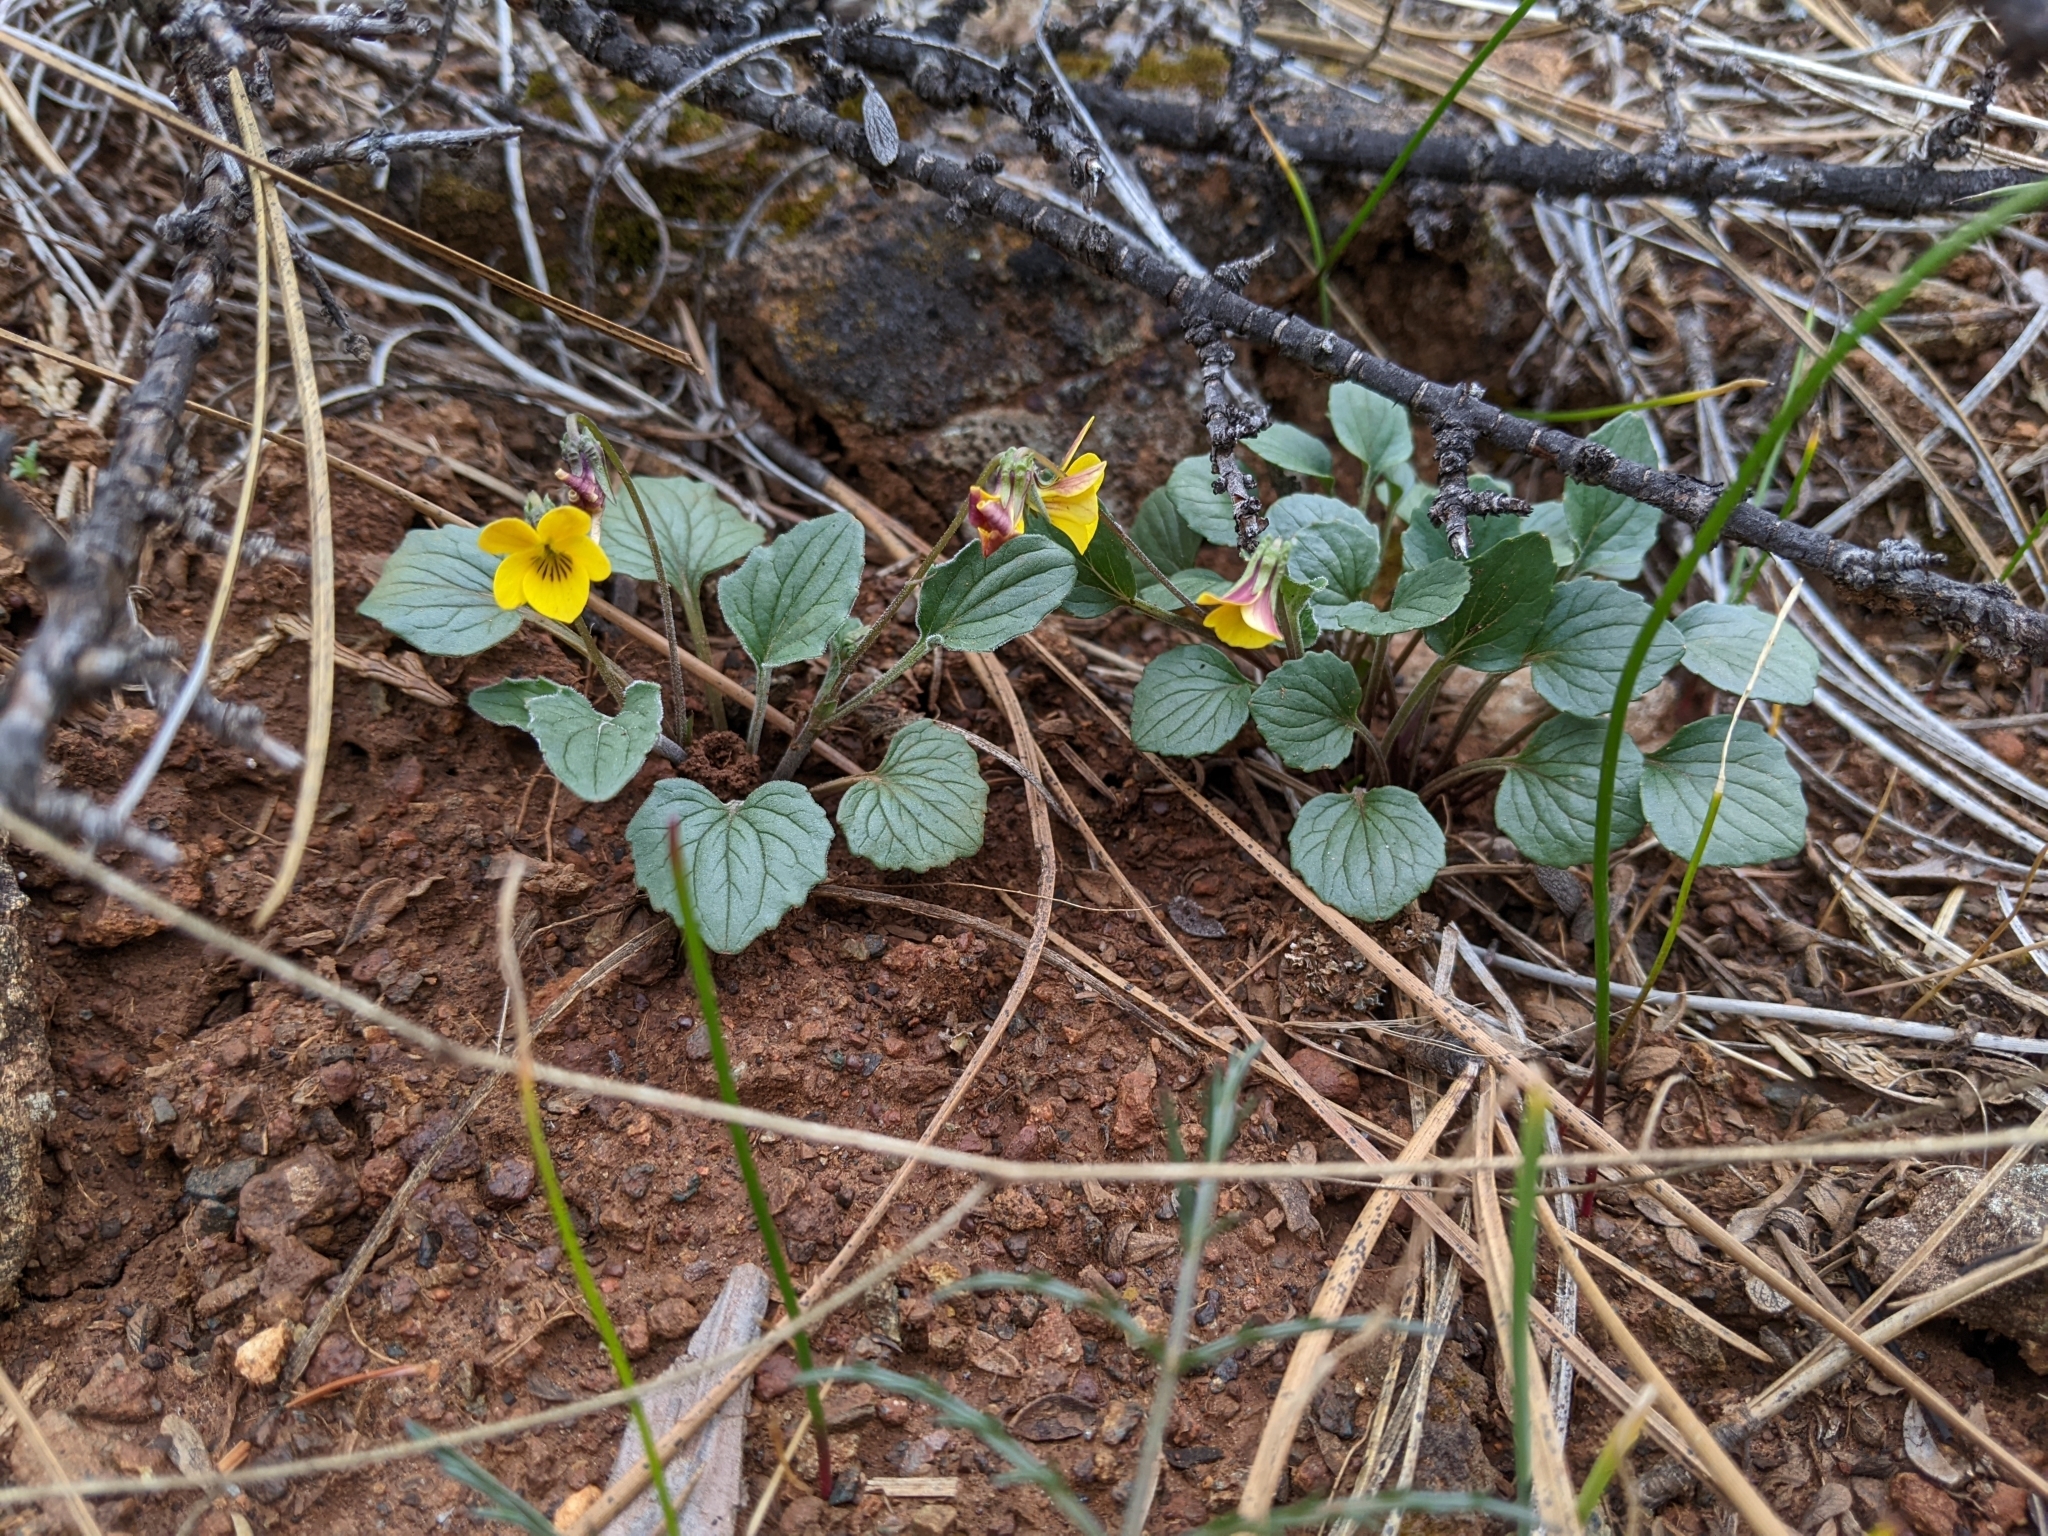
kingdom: Plantae
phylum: Tracheophyta
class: Magnoliopsida
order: Malpighiales
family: Violaceae
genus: Viola
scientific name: Viola purpurea
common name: Pine violet
